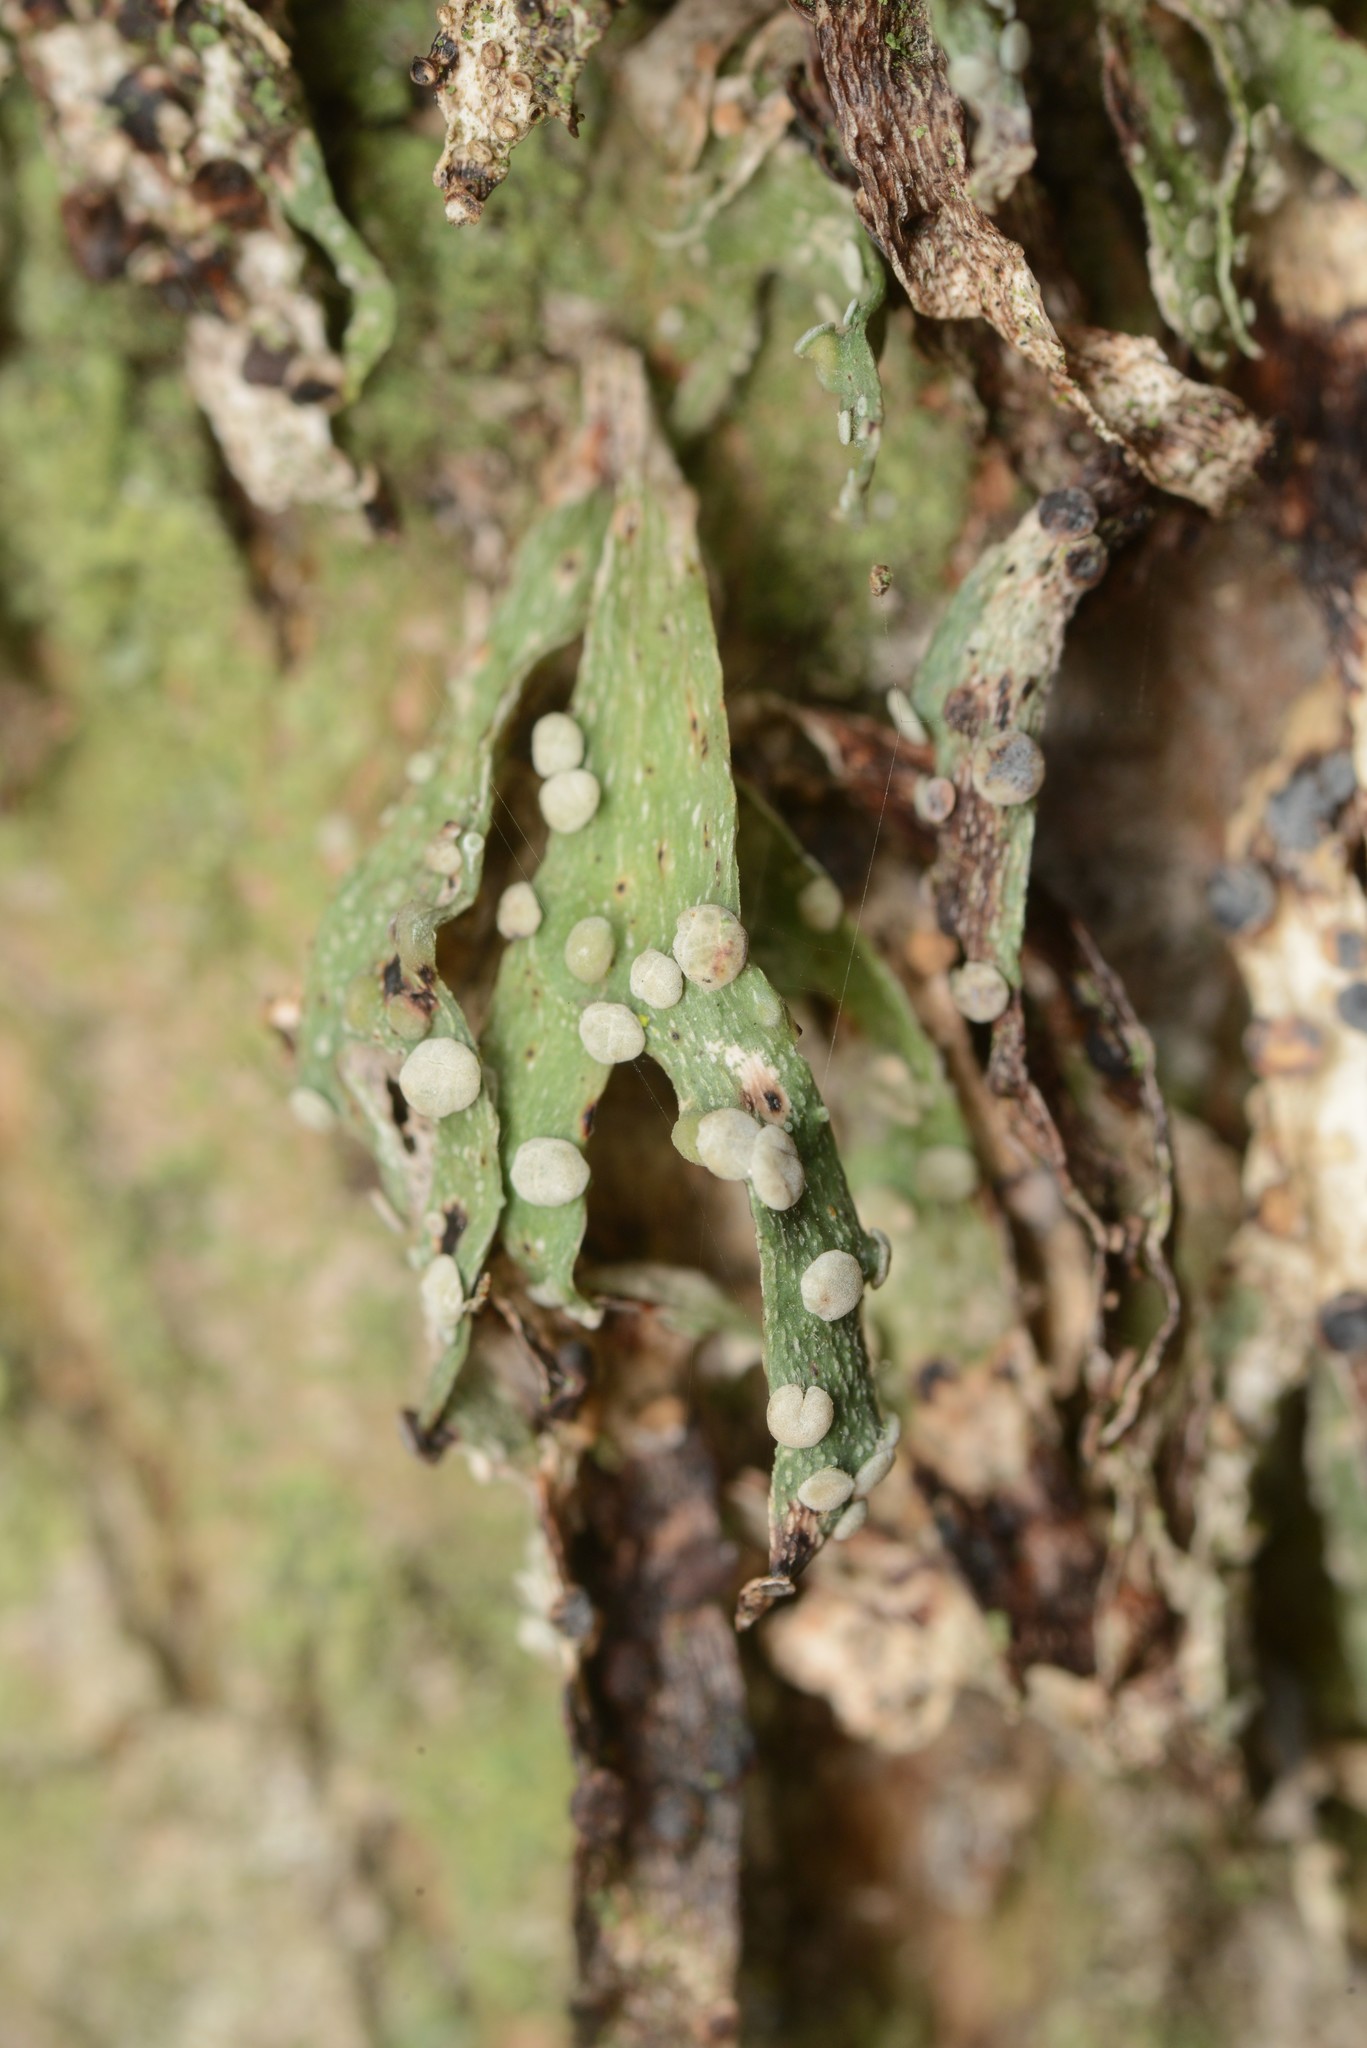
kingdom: Fungi
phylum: Ascomycota
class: Lecanoromycetes
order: Lecanorales
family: Ramalinaceae
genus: Ramalina
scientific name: Ramalina celastri
